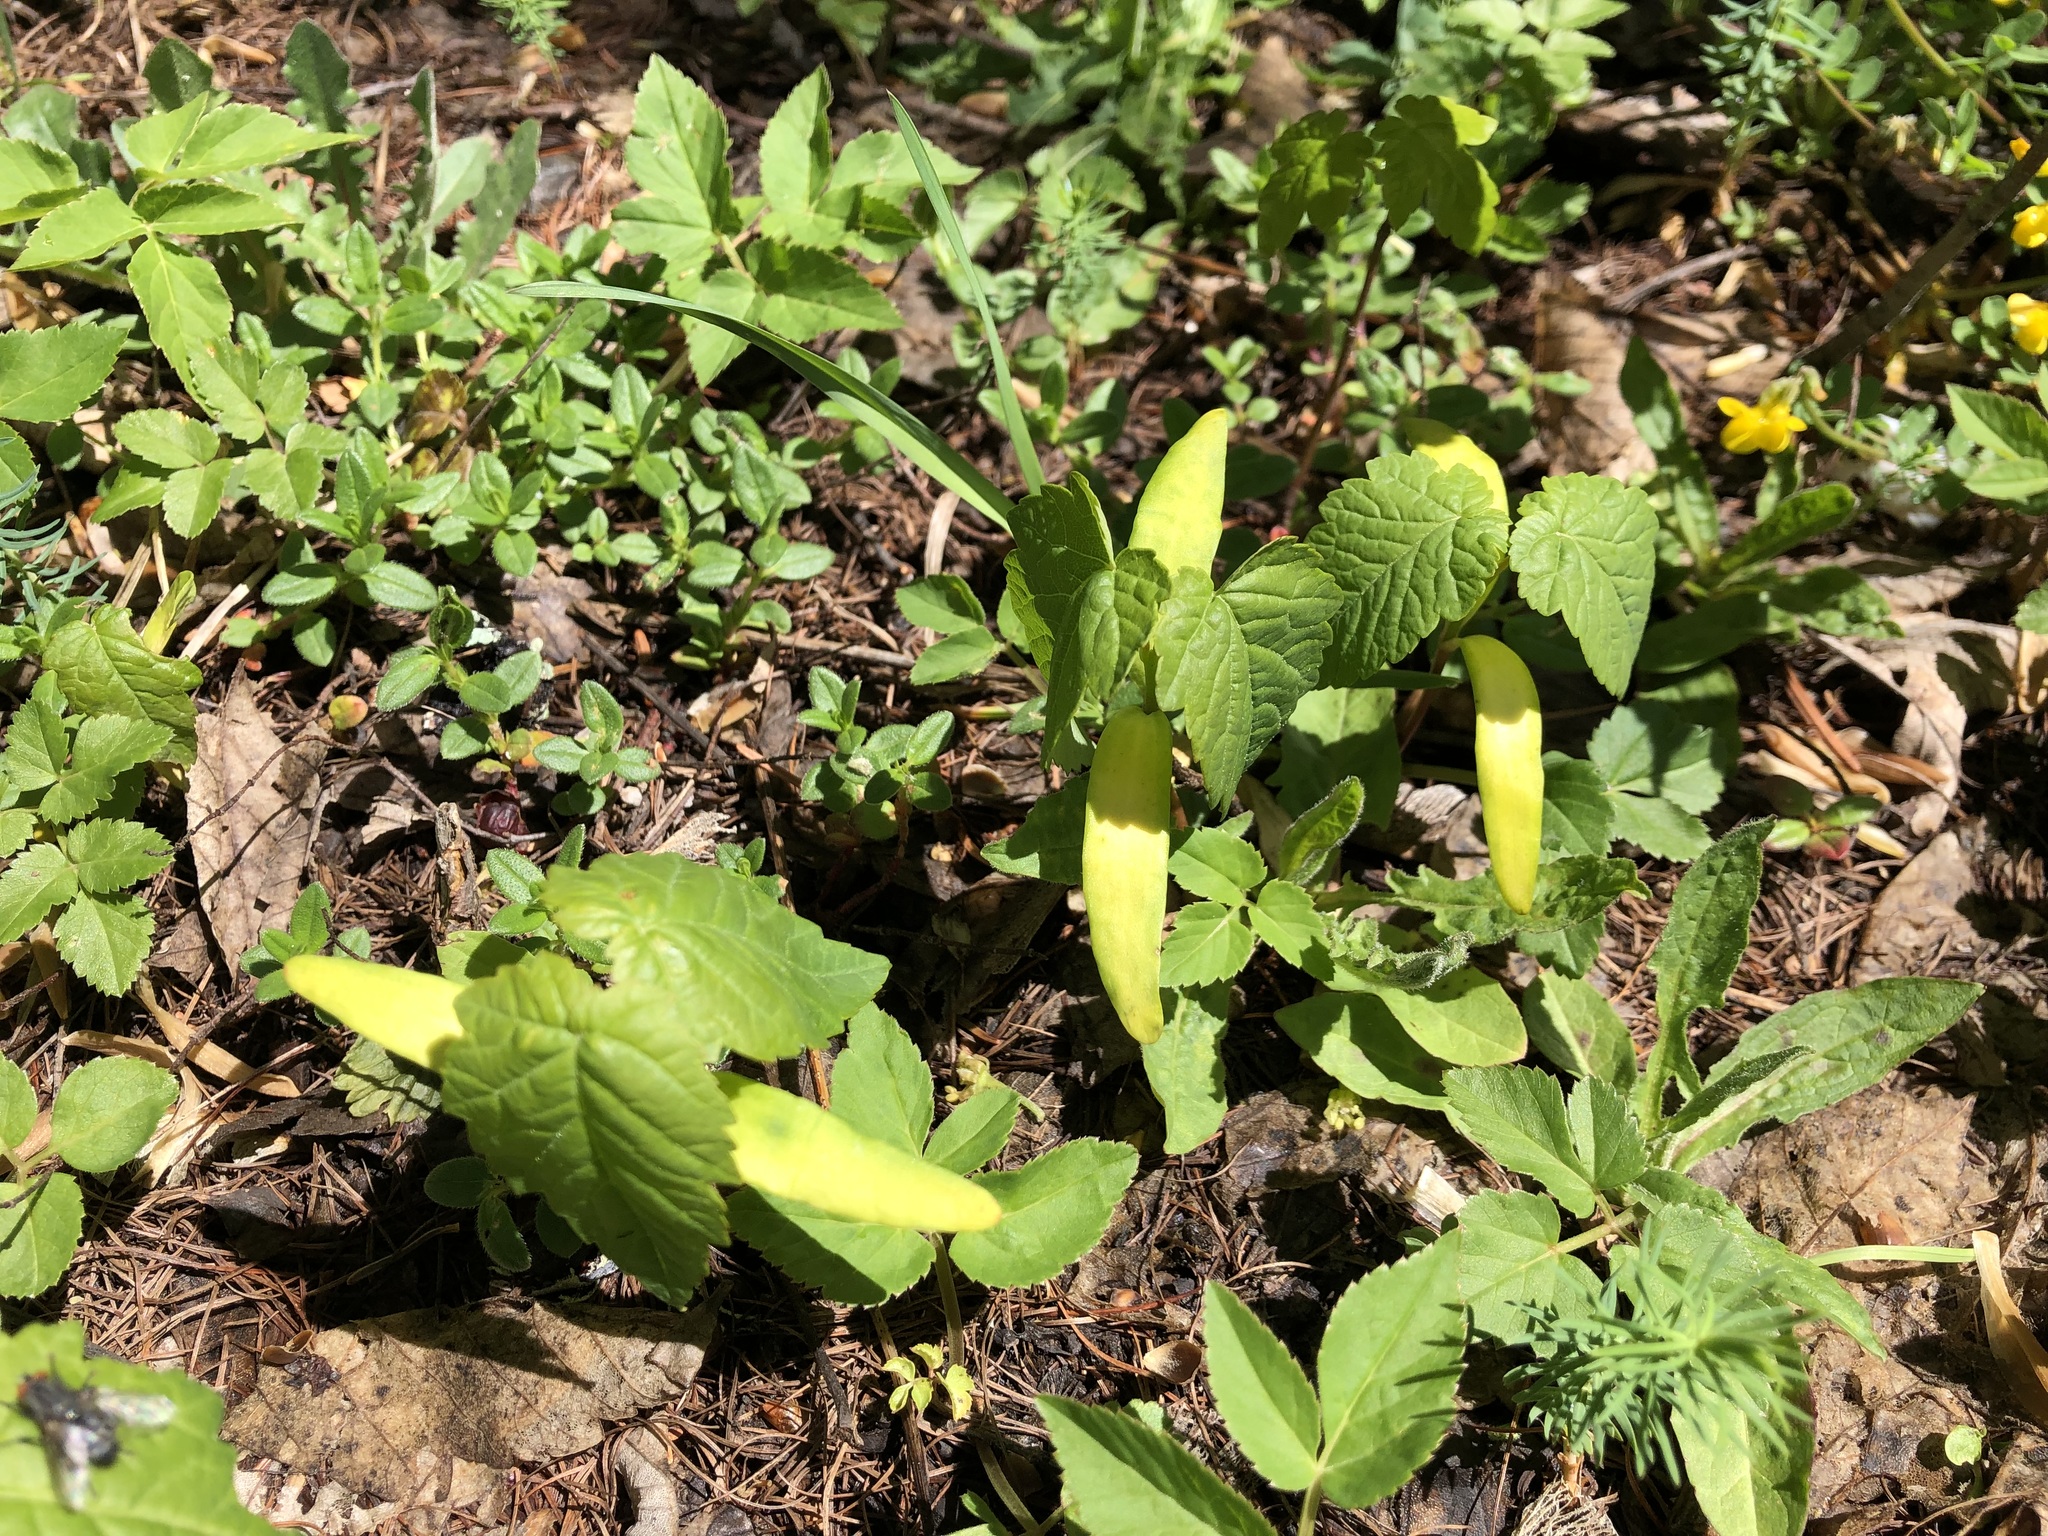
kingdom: Plantae
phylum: Tracheophyta
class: Magnoliopsida
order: Sapindales
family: Sapindaceae
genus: Acer
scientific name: Acer pseudoplatanus
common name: Sycamore
